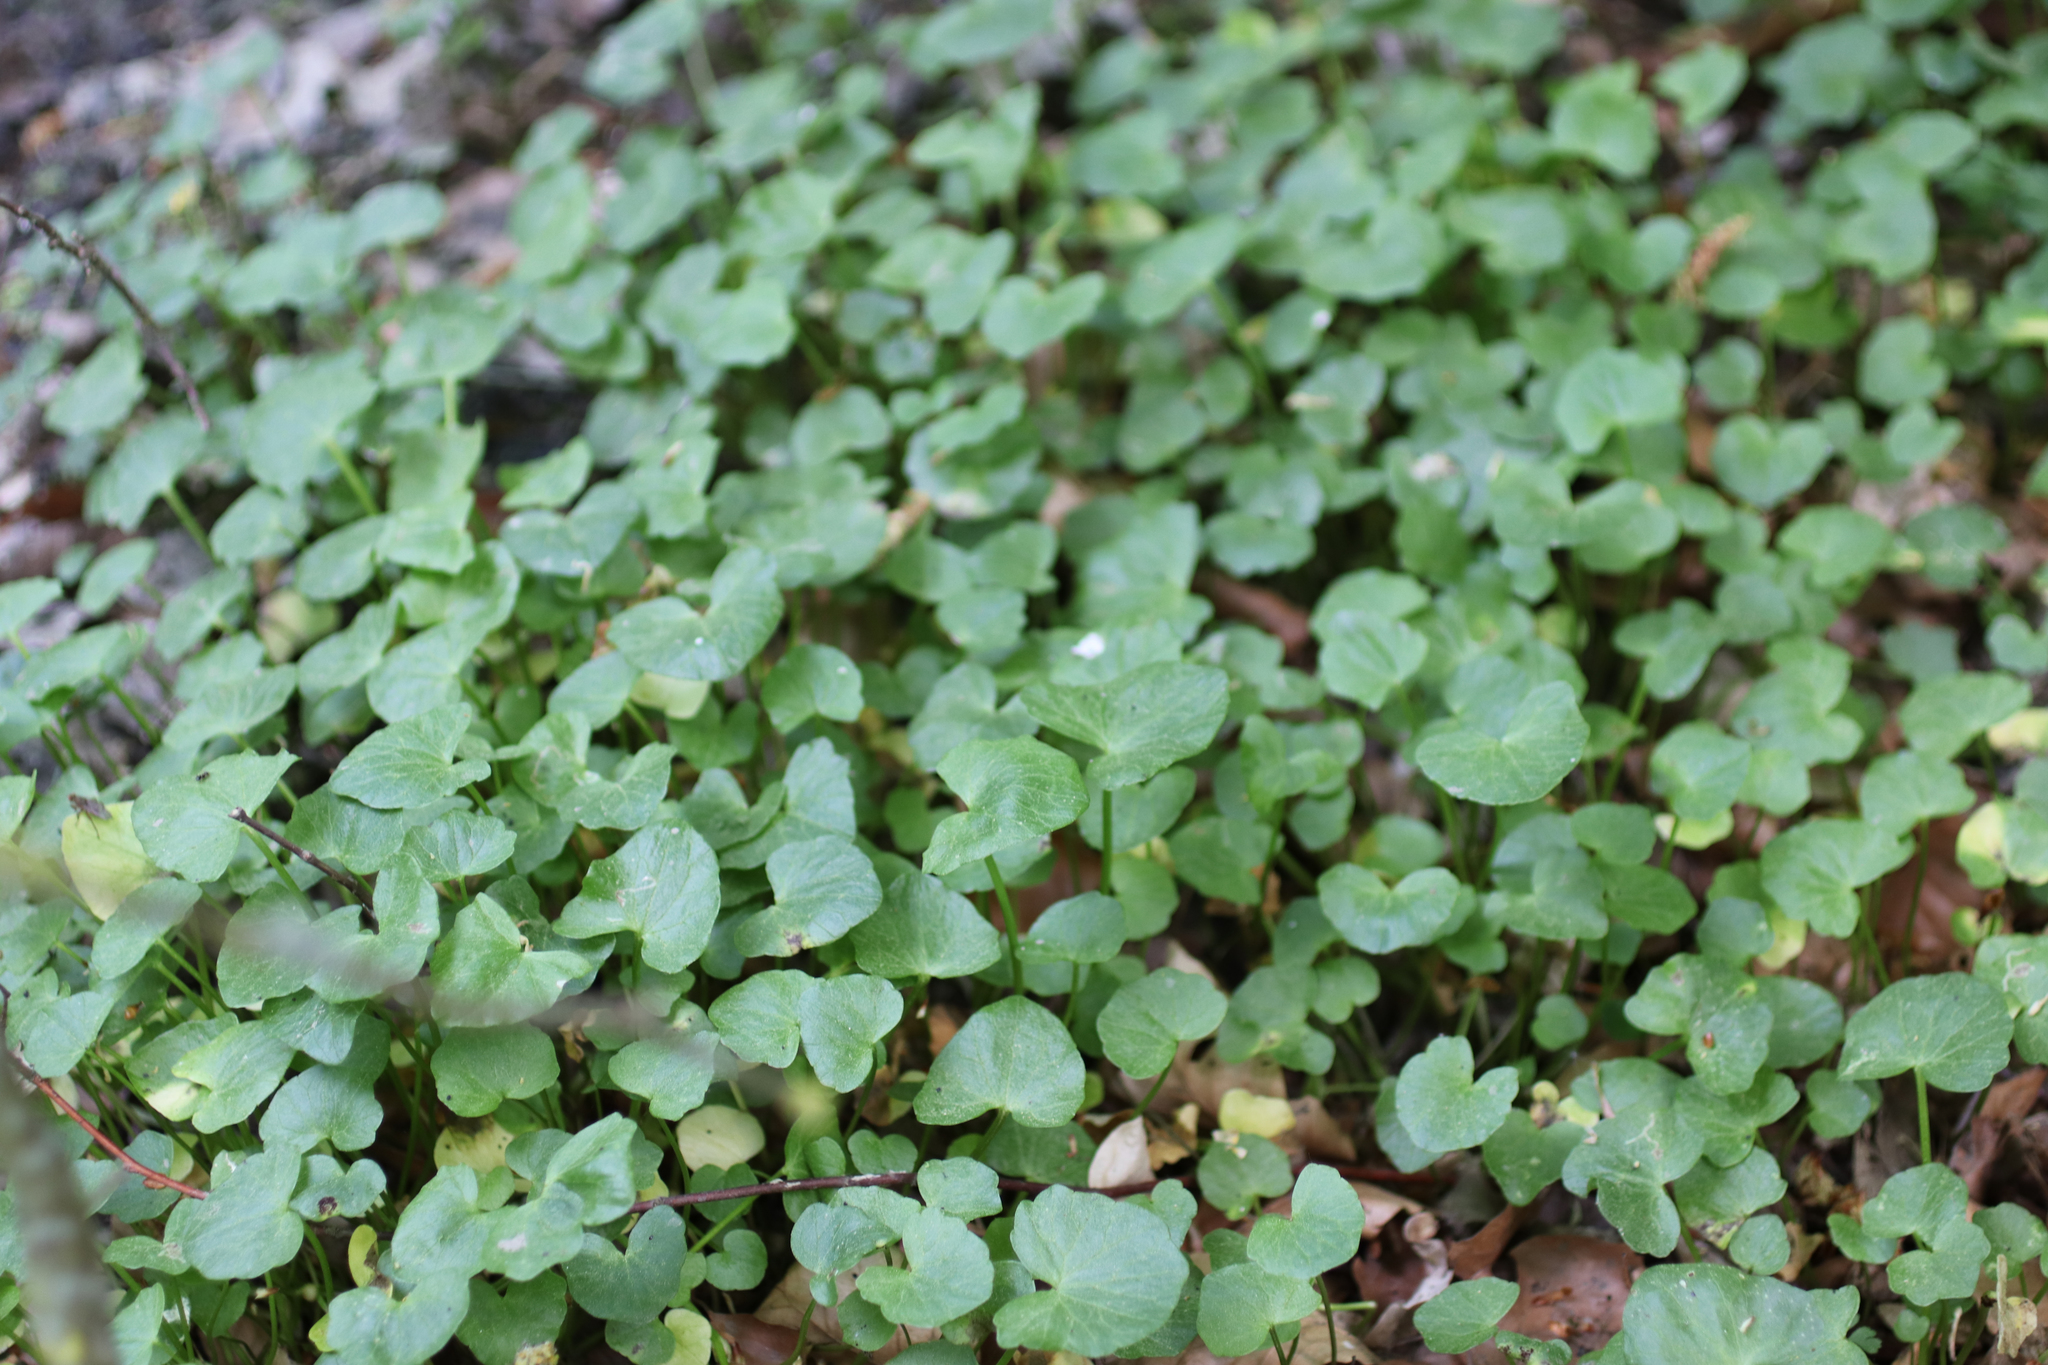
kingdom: Plantae
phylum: Tracheophyta
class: Magnoliopsida
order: Ranunculales
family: Ranunculaceae
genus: Ficaria
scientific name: Ficaria verna
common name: Lesser celandine
